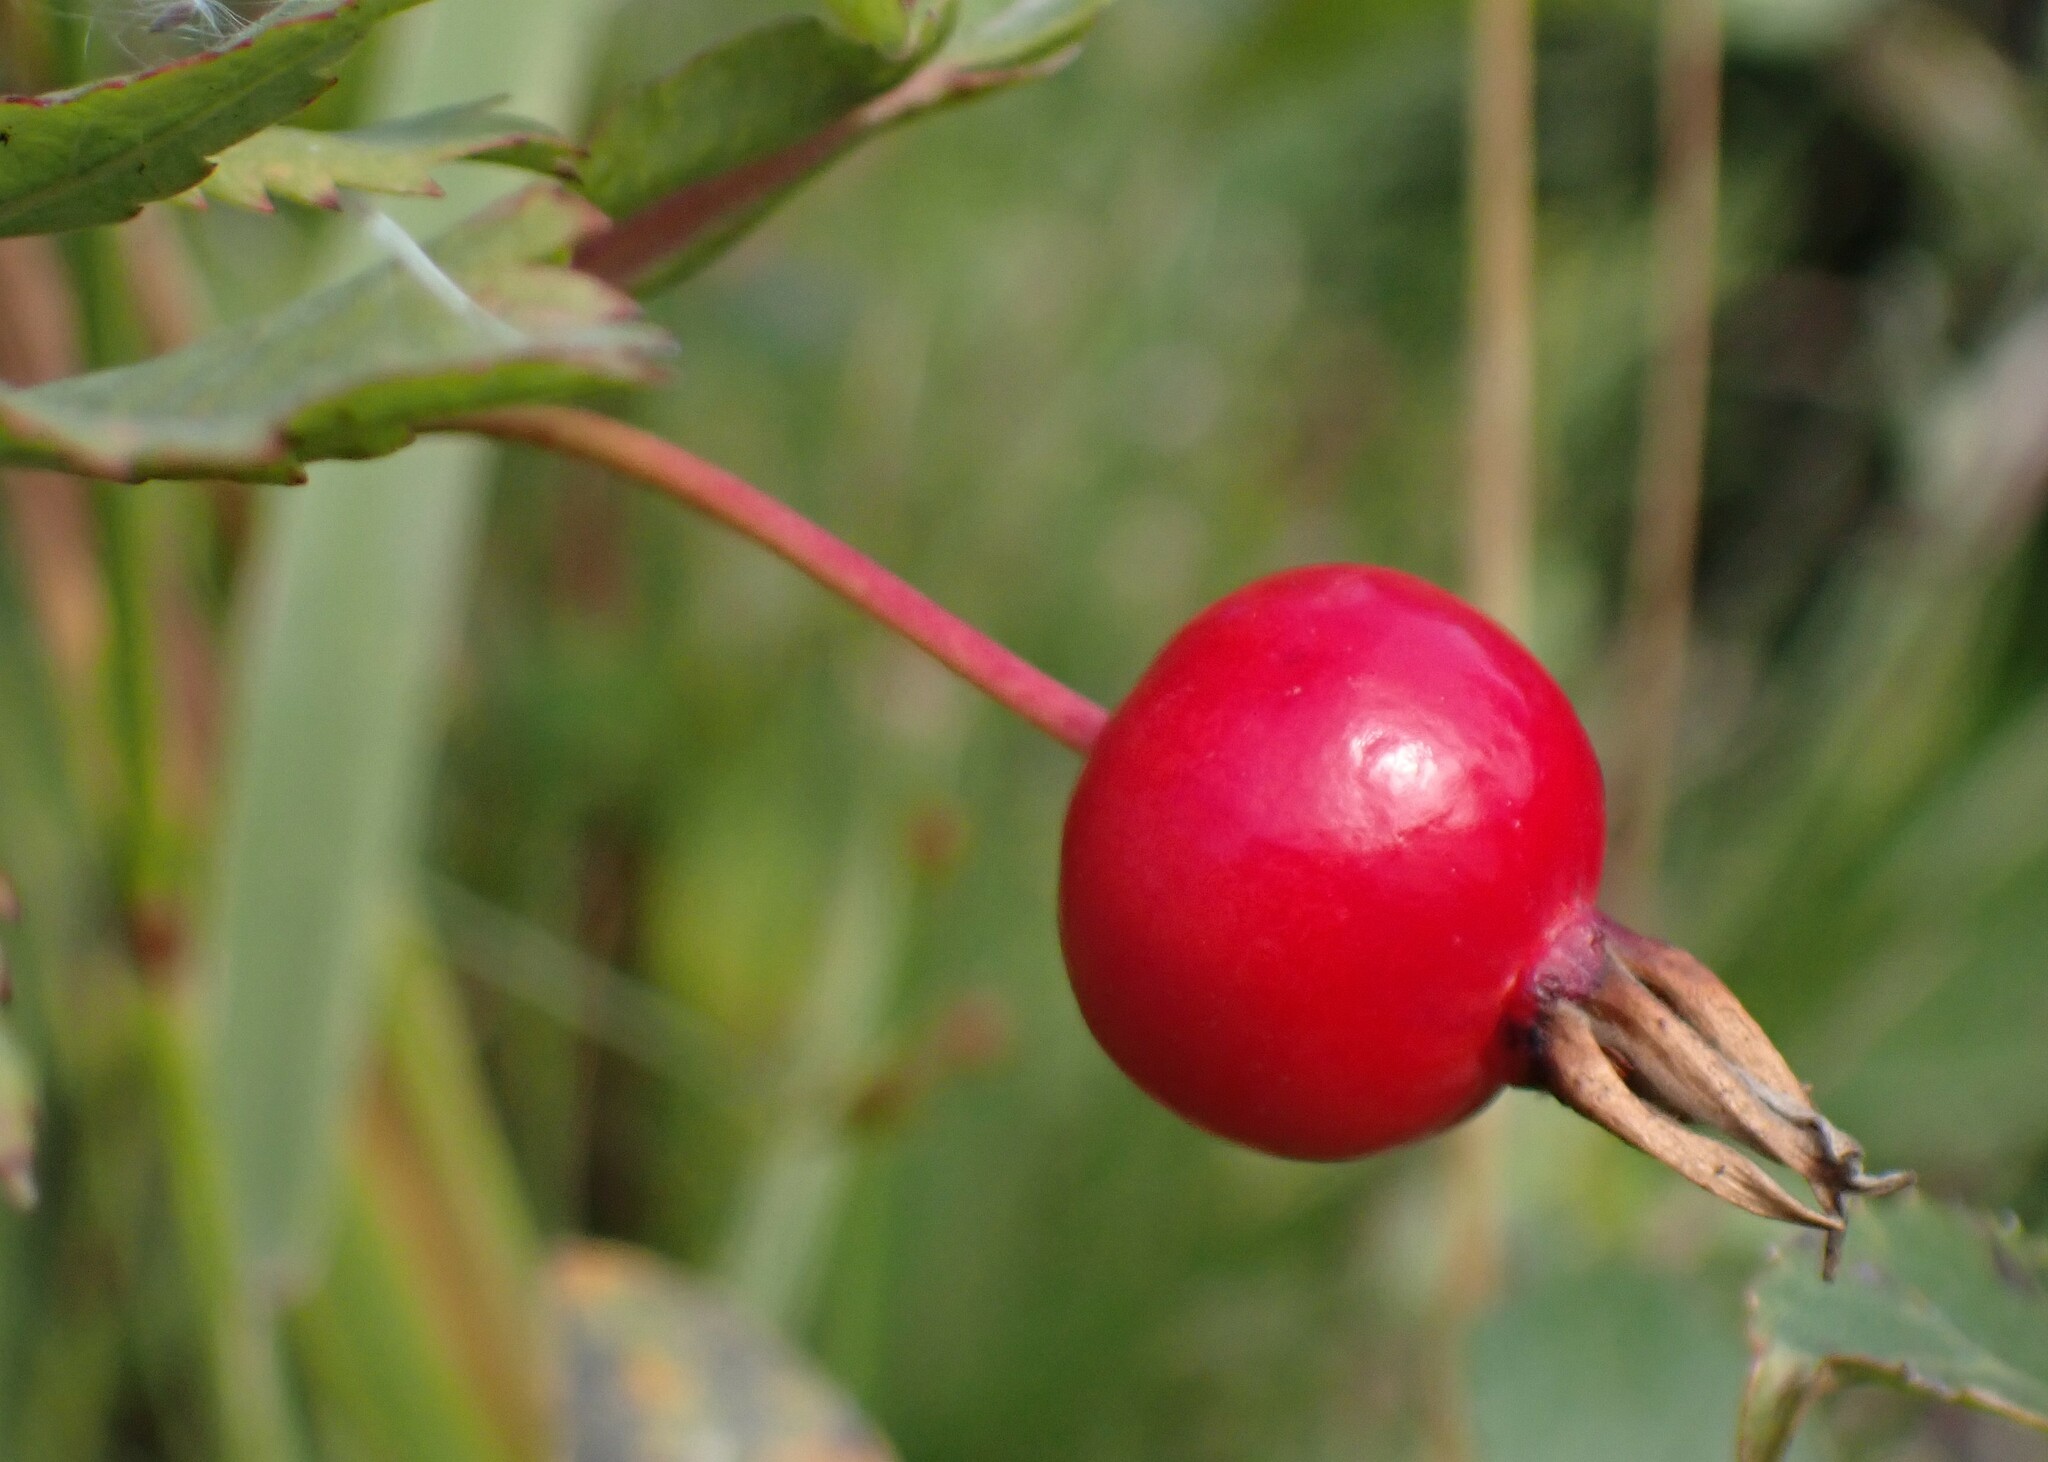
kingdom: Plantae
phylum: Tracheophyta
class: Magnoliopsida
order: Rosales
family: Rosaceae
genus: Rosa
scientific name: Rosa
